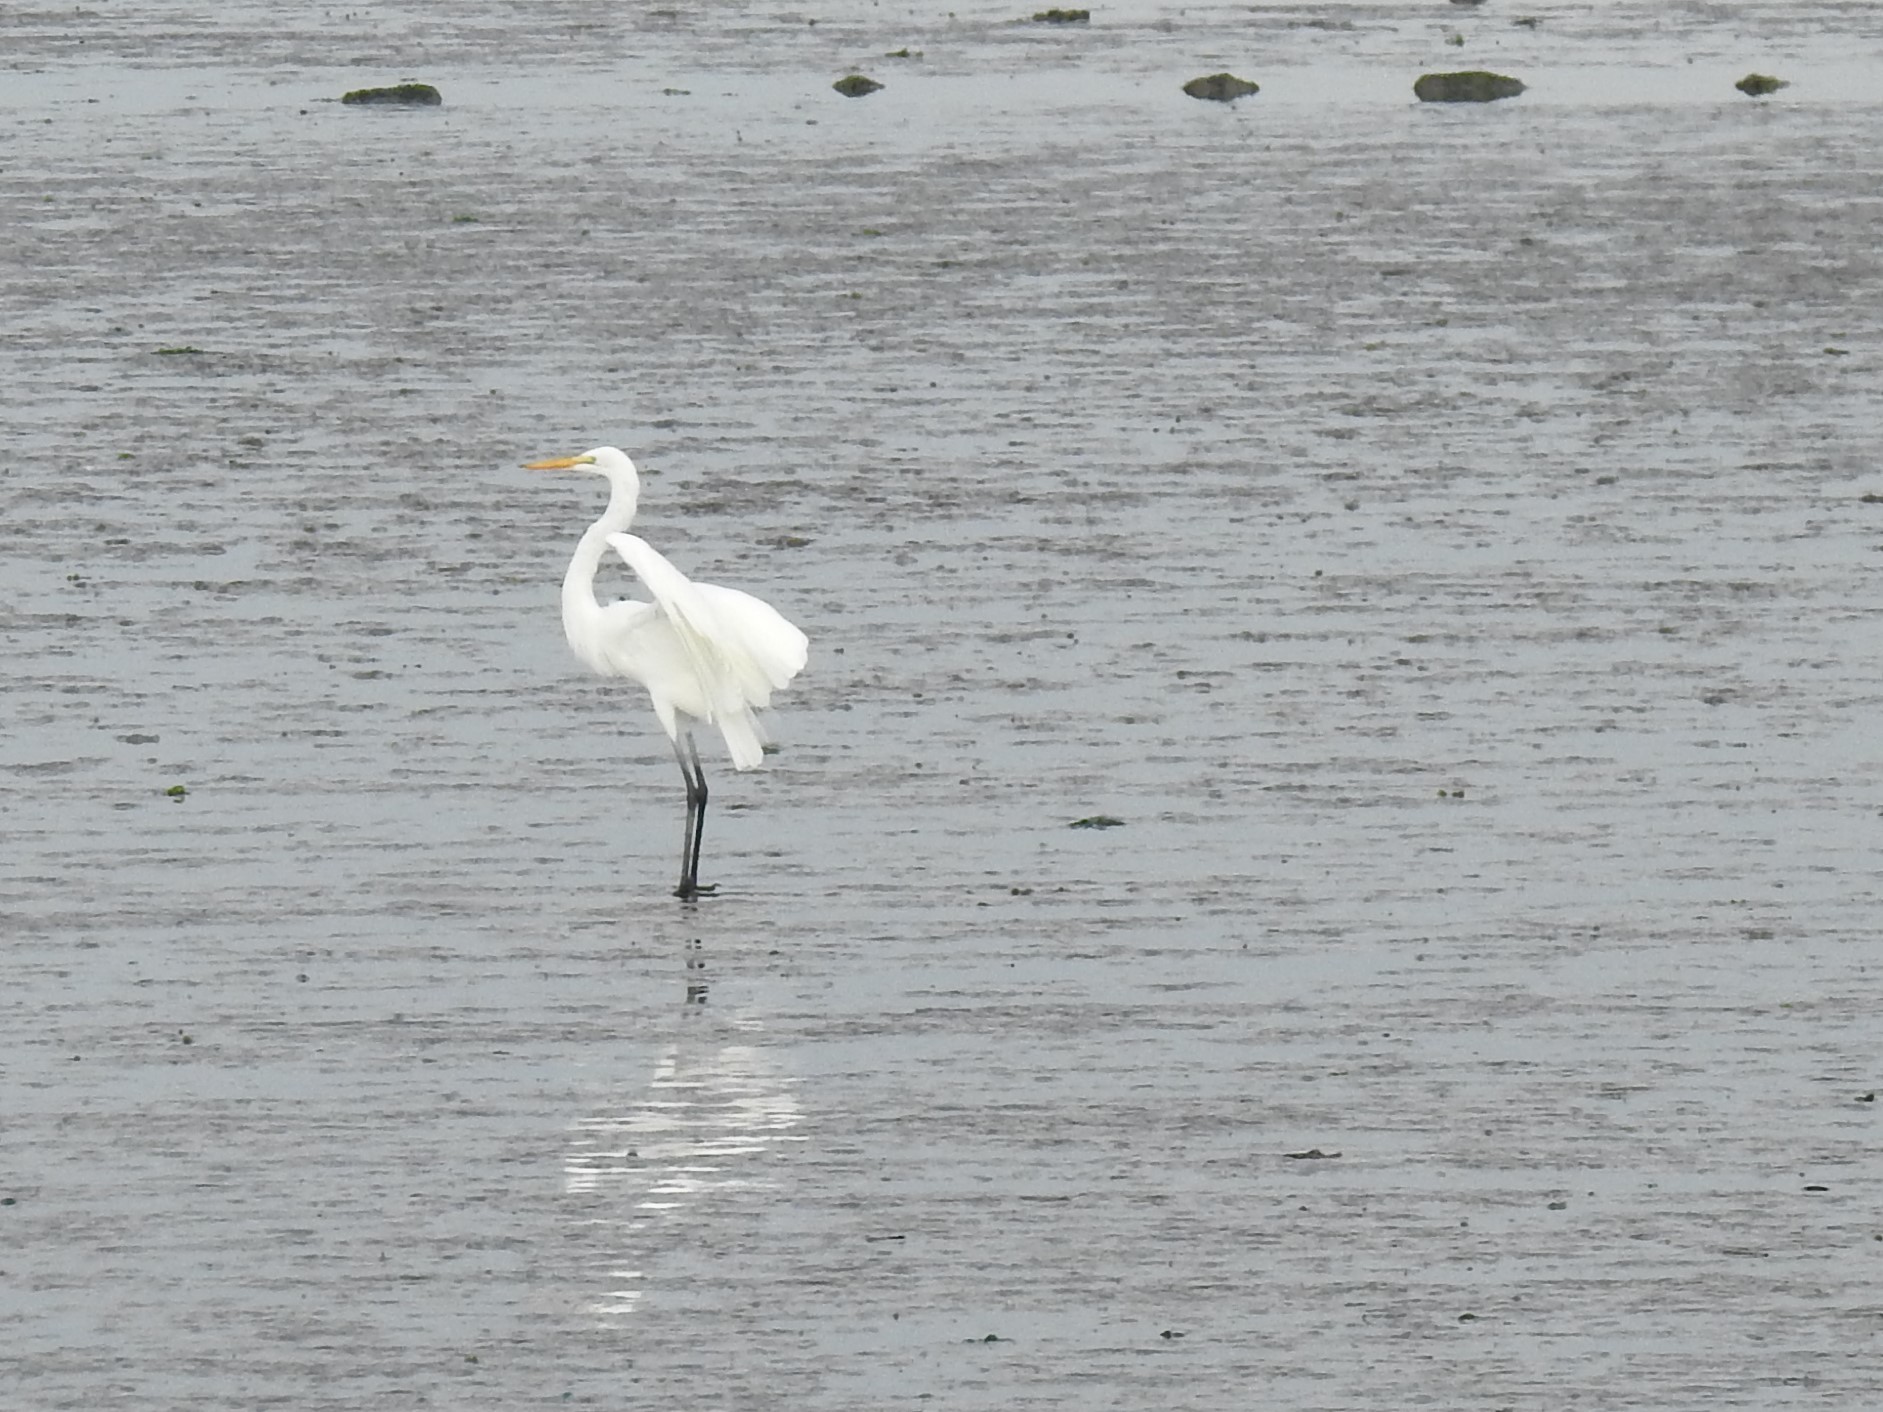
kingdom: Animalia
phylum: Chordata
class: Aves
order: Pelecaniformes
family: Ardeidae
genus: Ardea
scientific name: Ardea alba
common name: Great egret
